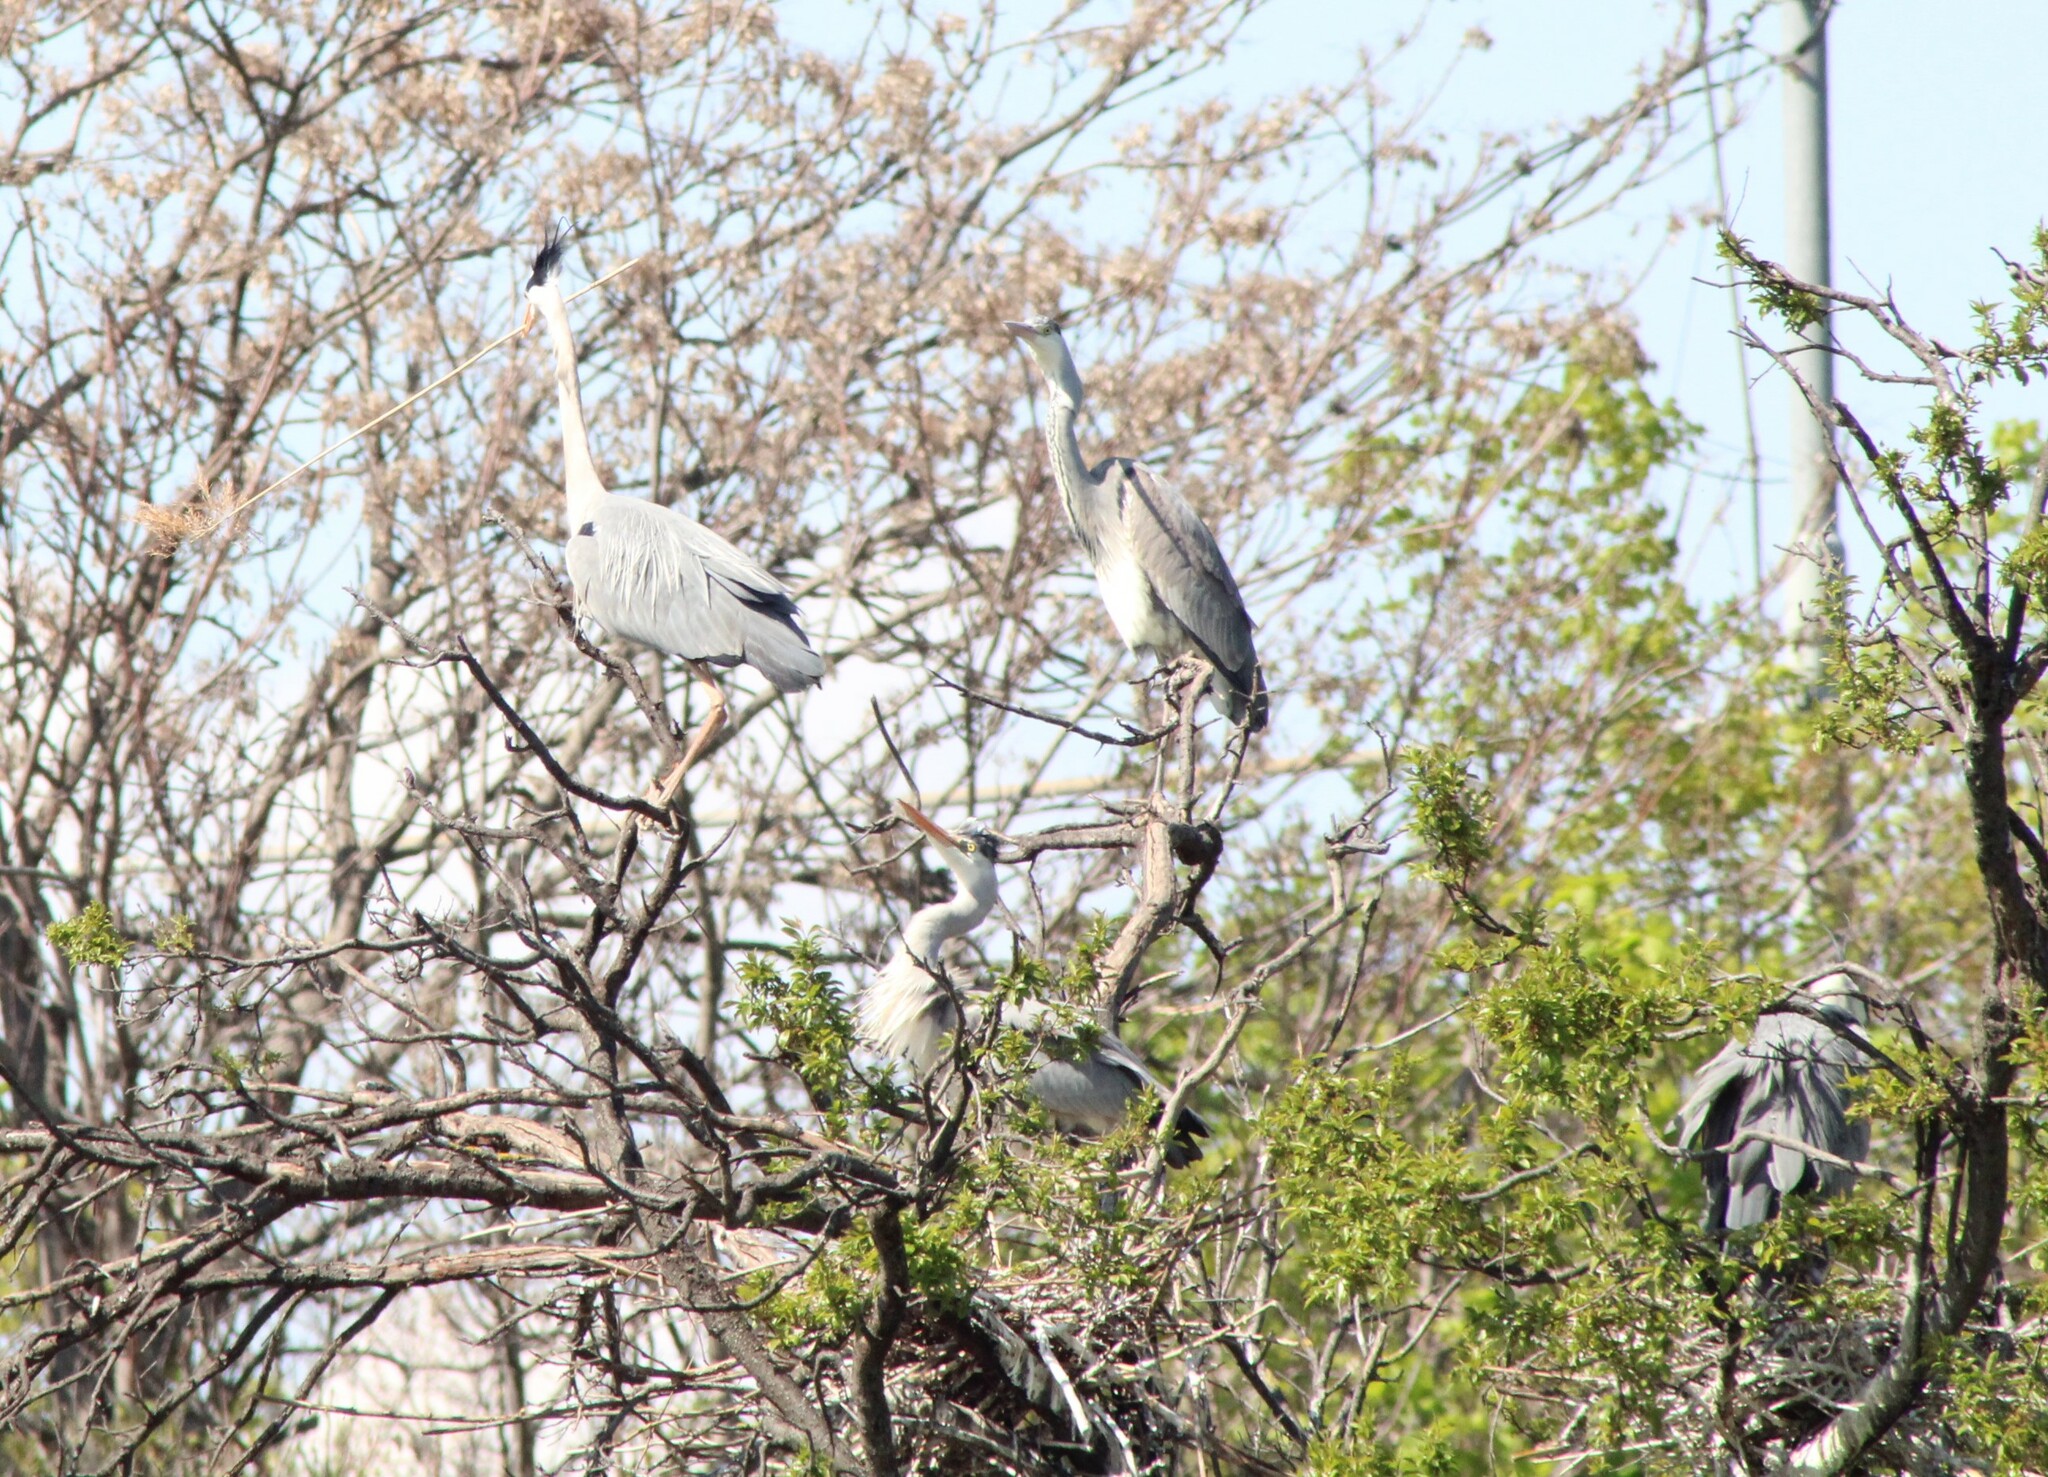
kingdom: Animalia
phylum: Chordata
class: Aves
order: Pelecaniformes
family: Ardeidae
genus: Ardea
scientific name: Ardea cinerea
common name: Grey heron
